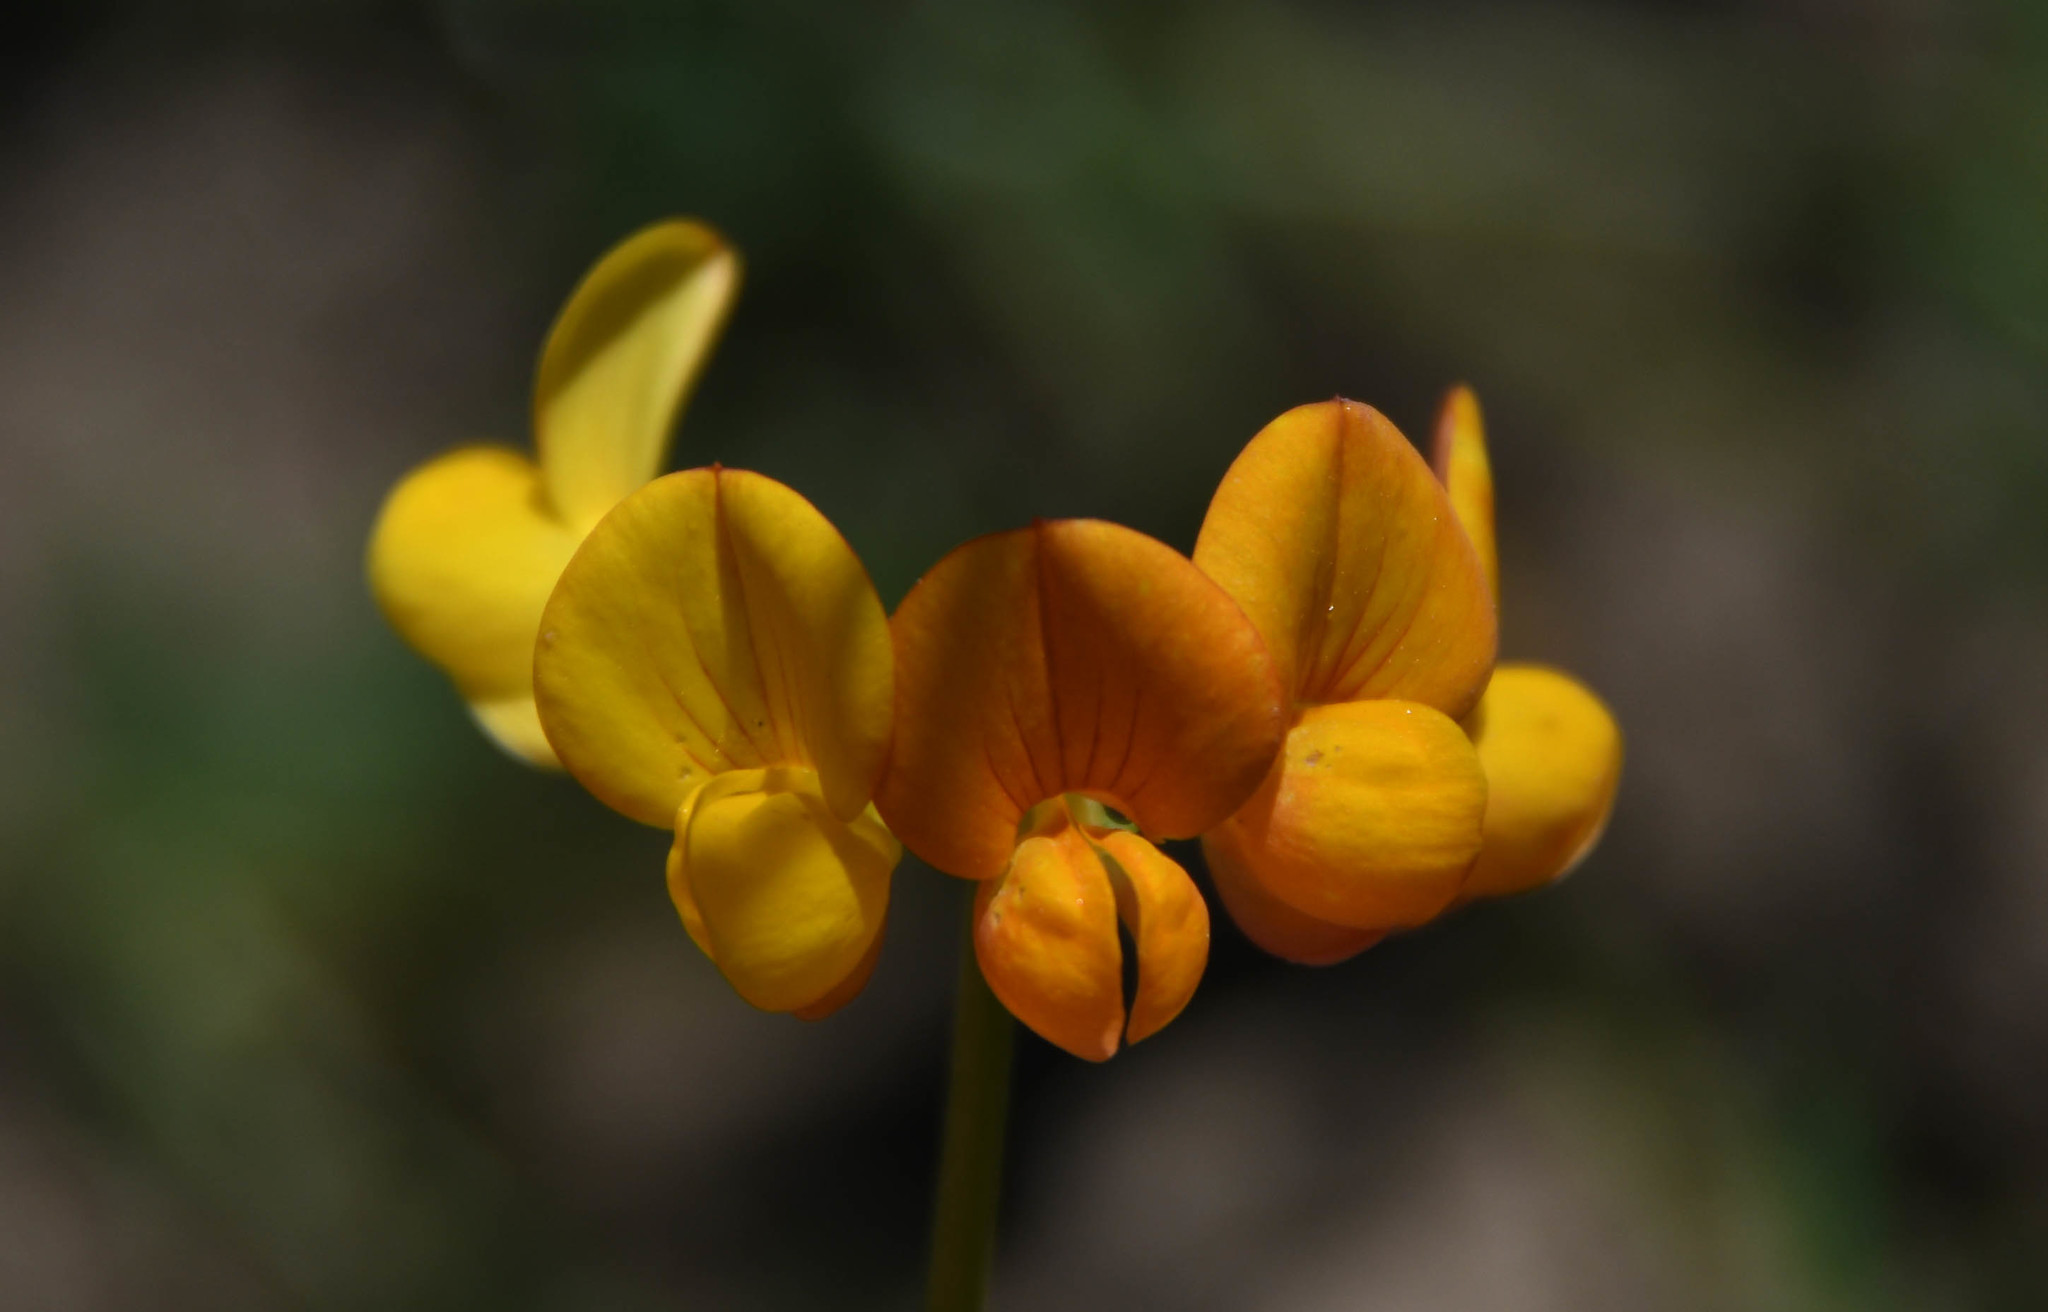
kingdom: Plantae
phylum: Tracheophyta
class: Magnoliopsida
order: Fabales
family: Fabaceae
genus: Lotus
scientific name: Lotus corniculatus
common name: Common bird's-foot-trefoil
